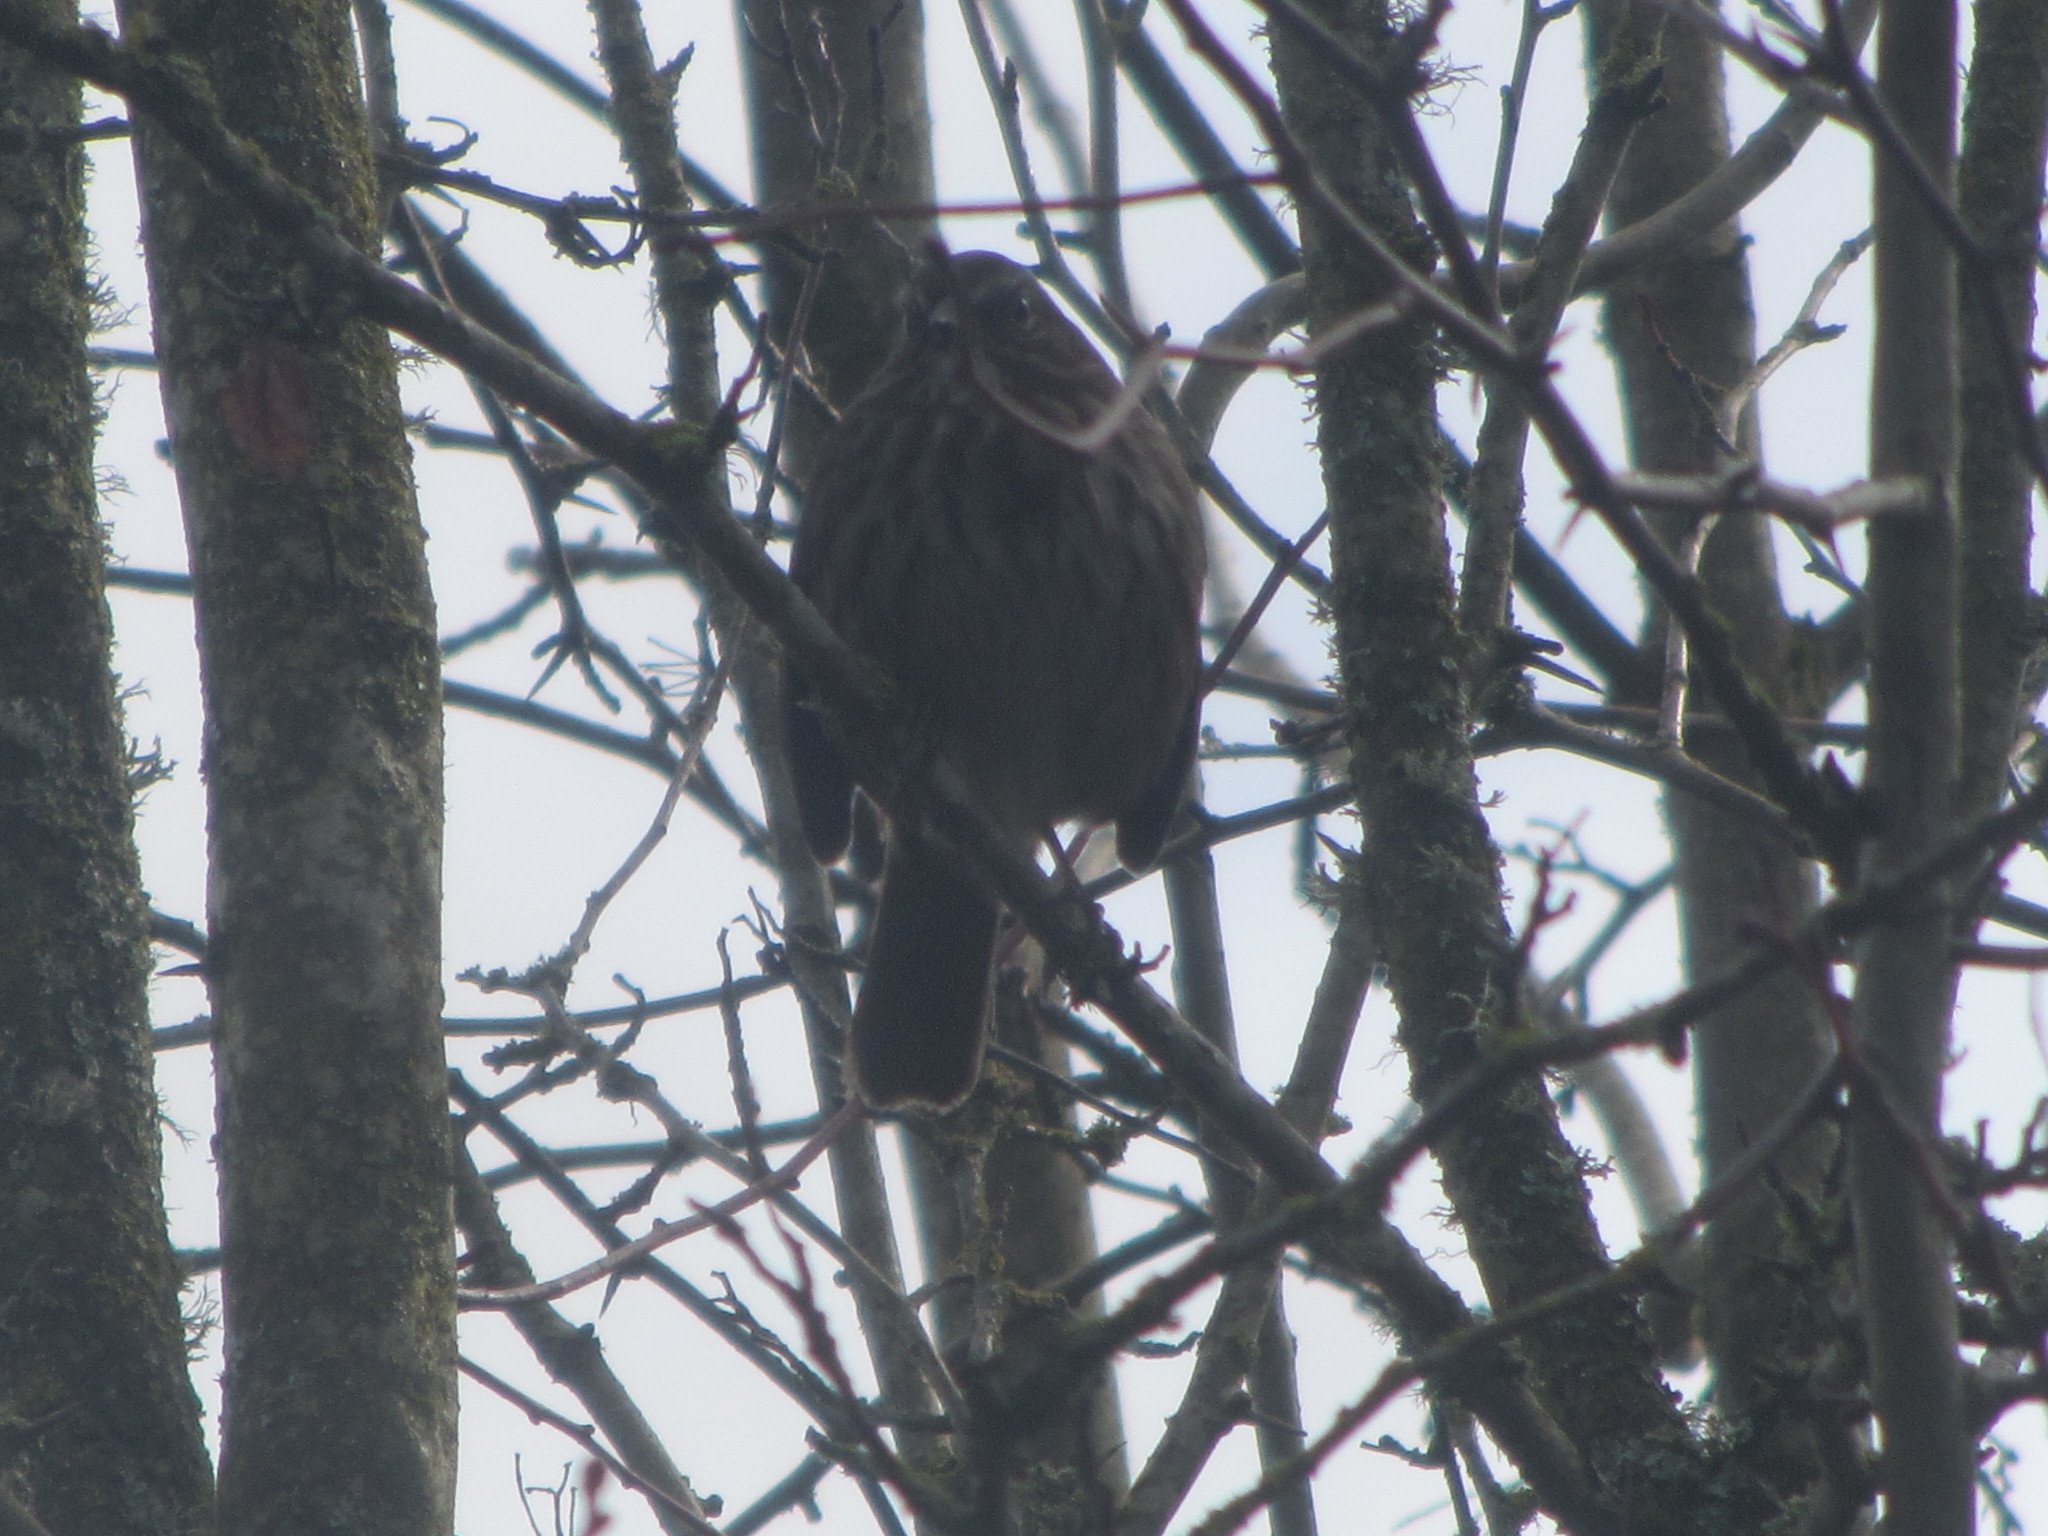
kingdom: Animalia
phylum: Chordata
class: Aves
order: Passeriformes
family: Passerellidae
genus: Melospiza
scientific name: Melospiza melodia
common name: Song sparrow
